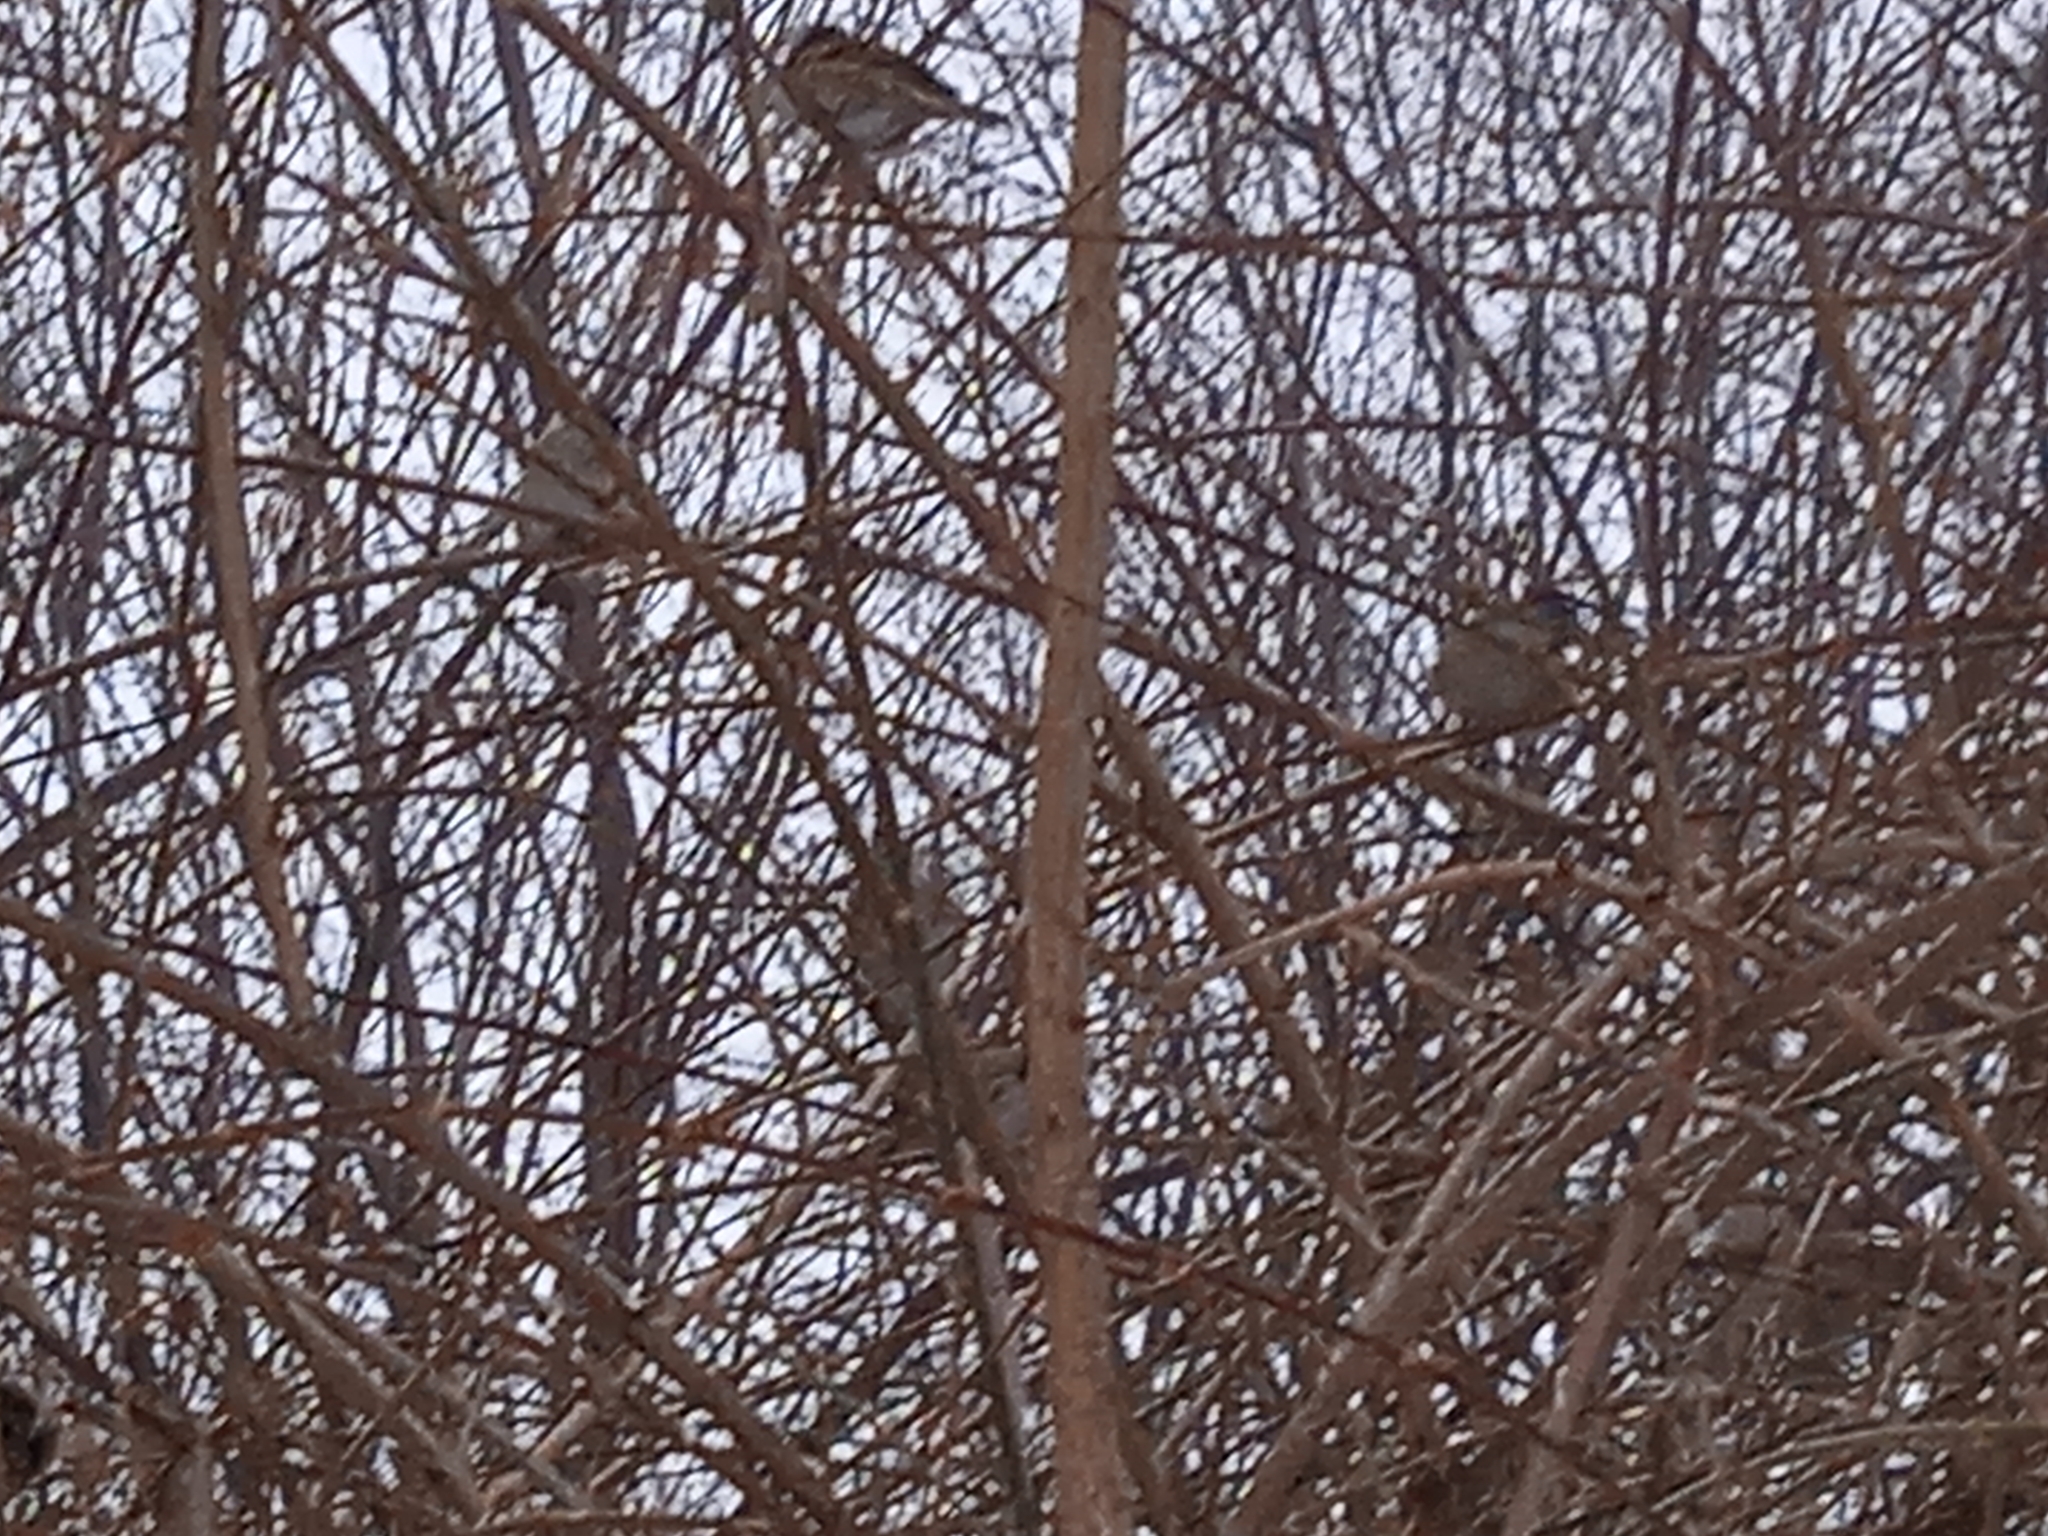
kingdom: Animalia
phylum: Chordata
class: Aves
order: Passeriformes
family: Passeridae
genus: Passer
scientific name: Passer montanus
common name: Eurasian tree sparrow
